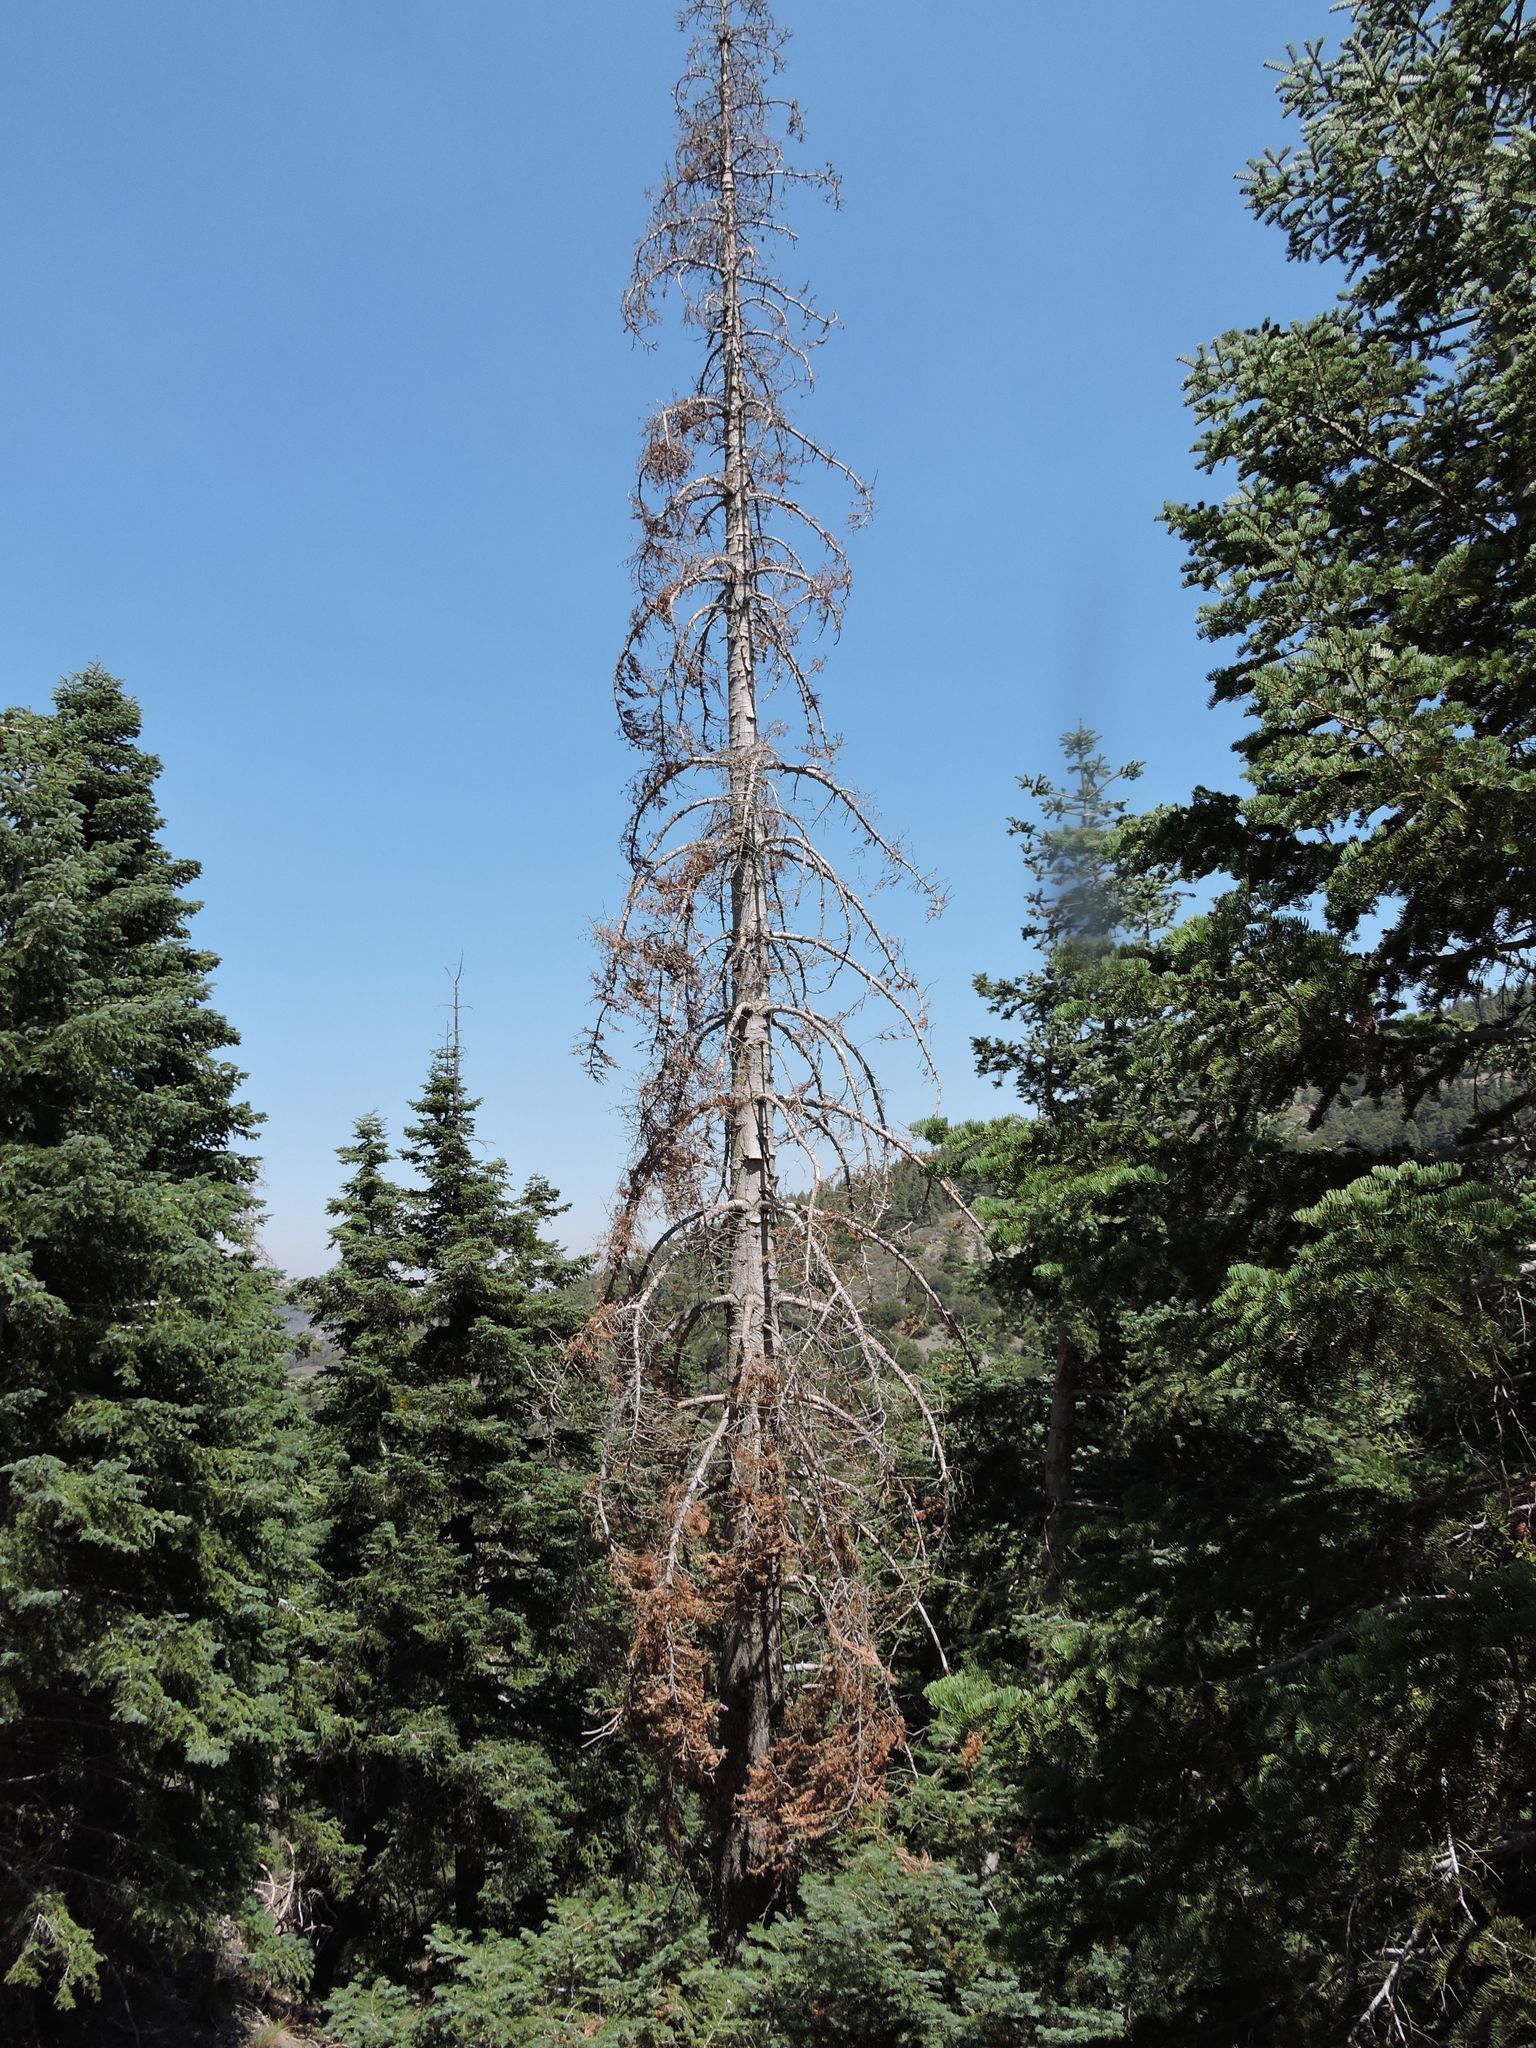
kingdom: Plantae
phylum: Tracheophyta
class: Pinopsida
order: Pinales
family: Pinaceae
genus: Abies
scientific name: Abies concolor
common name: Colorado fir
